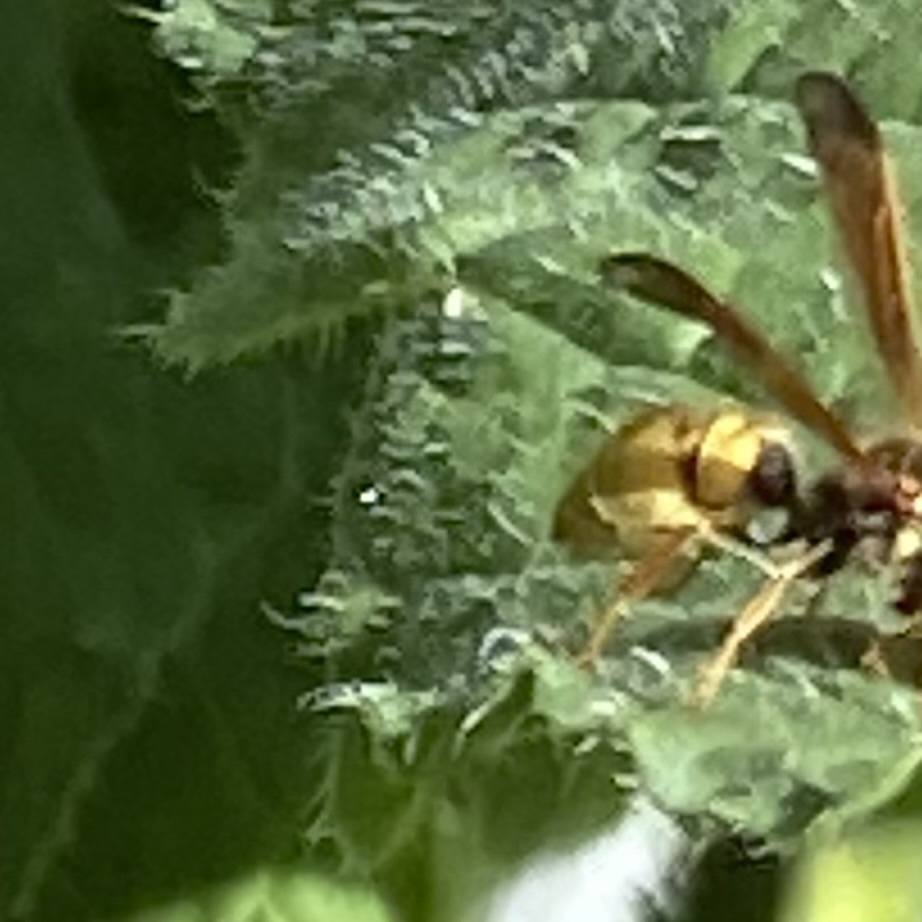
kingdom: Animalia
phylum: Arthropoda
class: Insecta
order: Hymenoptera
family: Vespidae
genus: Ancistrocerus
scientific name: Ancistrocerus
